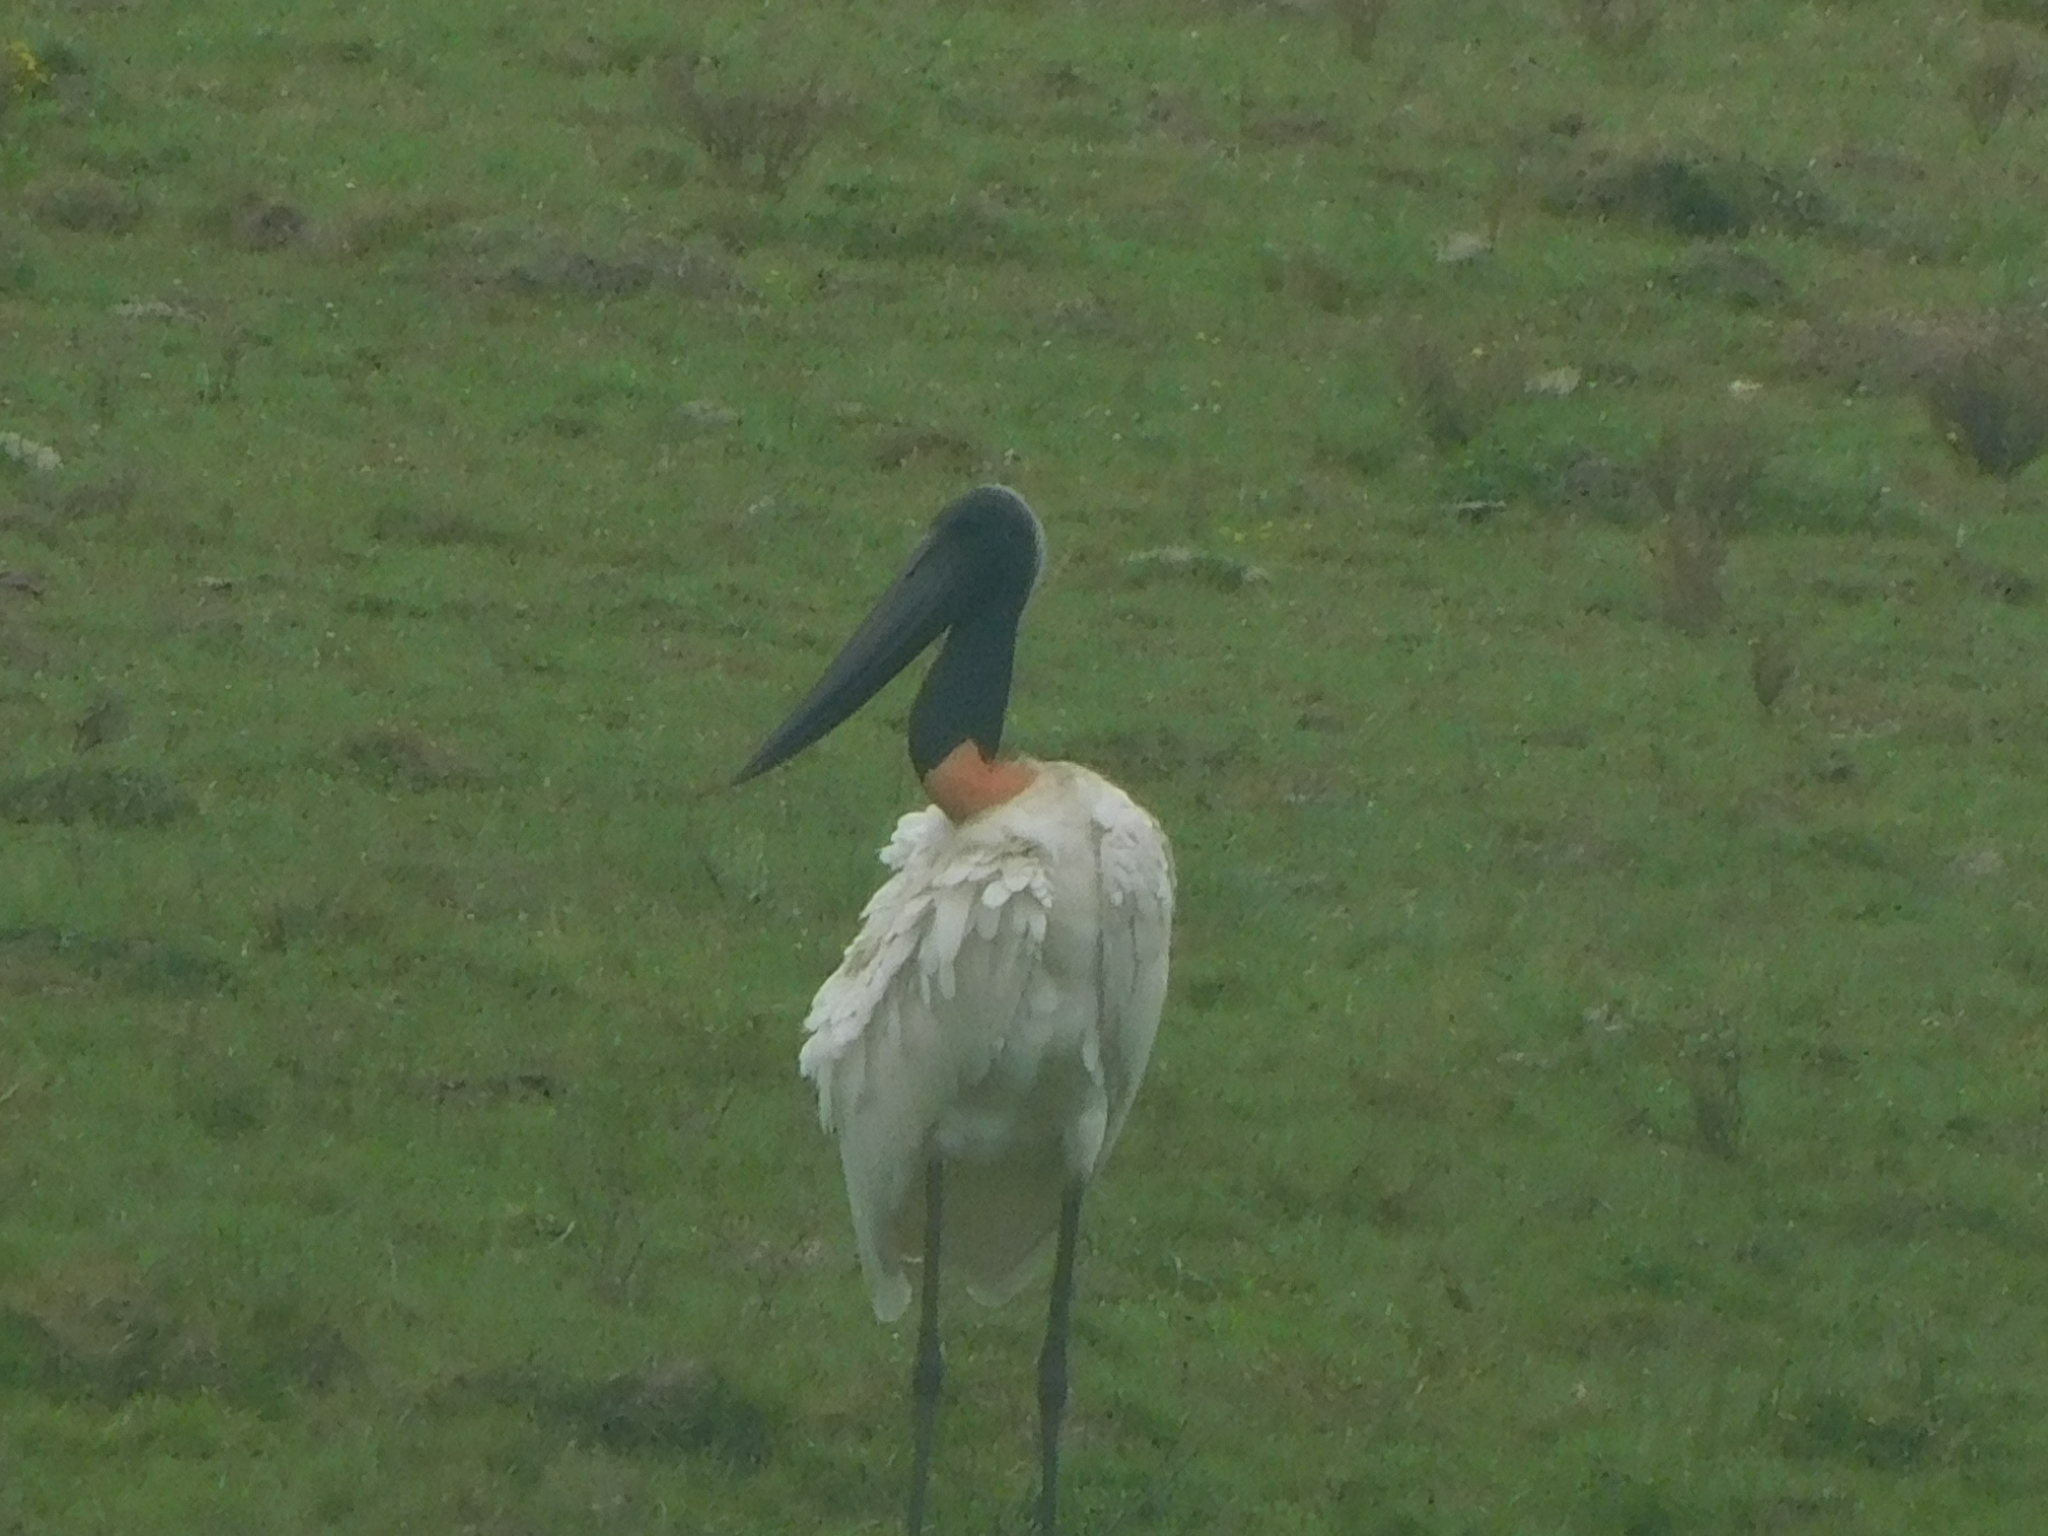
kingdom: Animalia
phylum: Chordata
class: Aves
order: Ciconiiformes
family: Ciconiidae
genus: Jabiru
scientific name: Jabiru mycteria
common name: Jabiru
